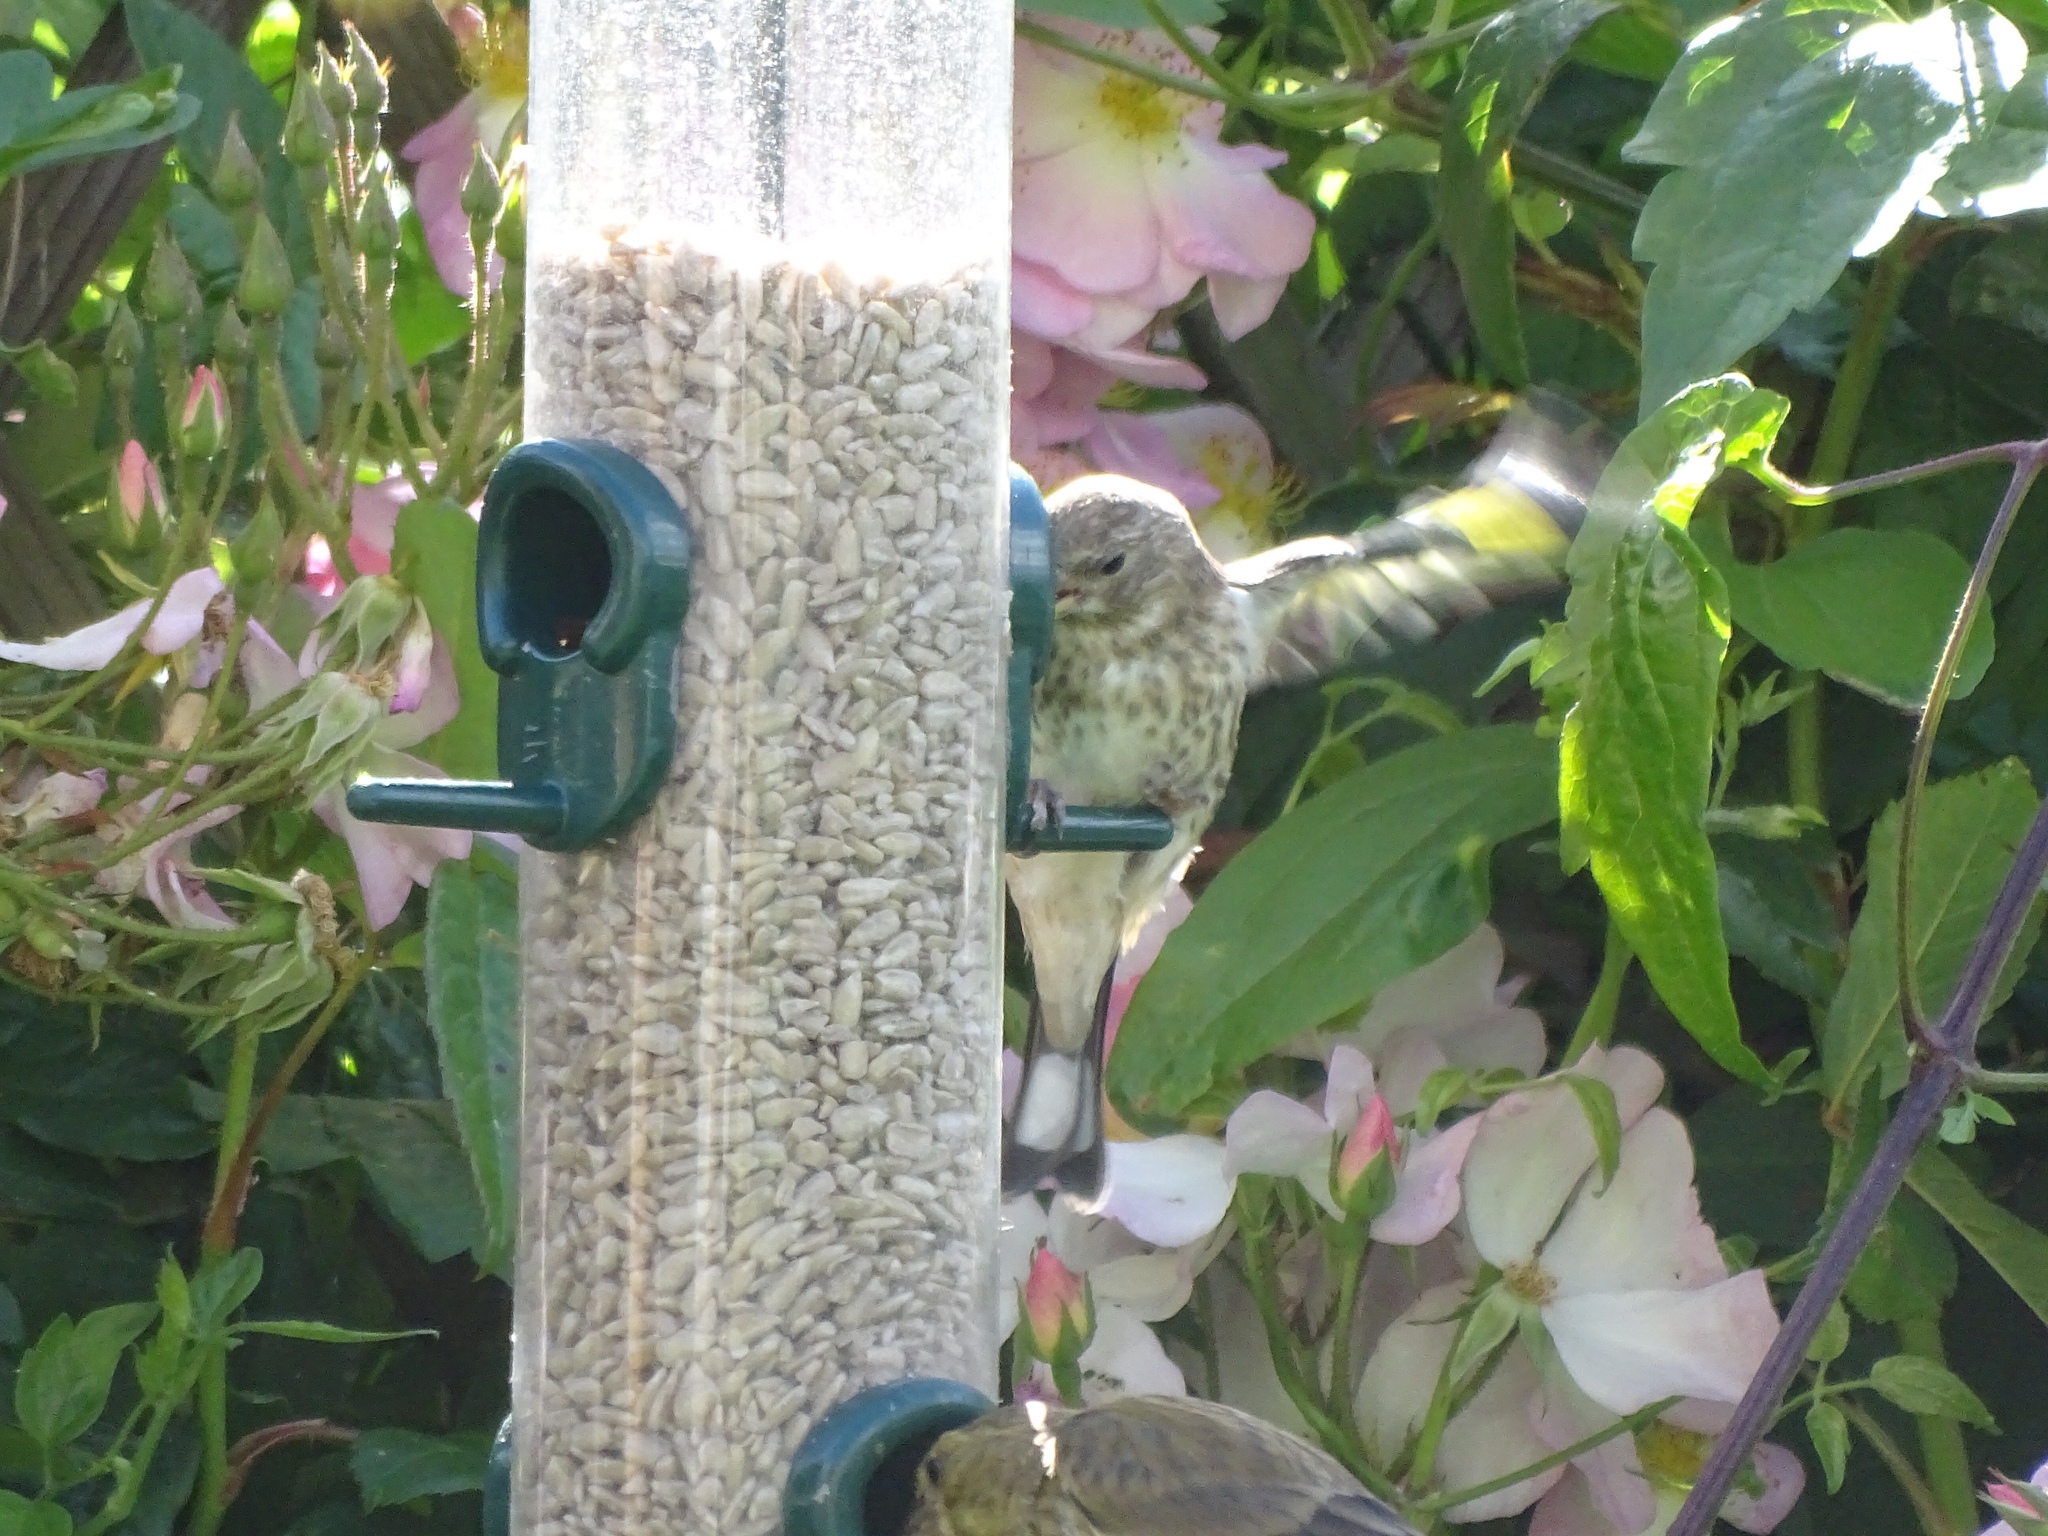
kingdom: Animalia
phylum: Chordata
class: Aves
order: Passeriformes
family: Fringillidae
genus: Carduelis
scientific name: Carduelis carduelis
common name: European goldfinch
